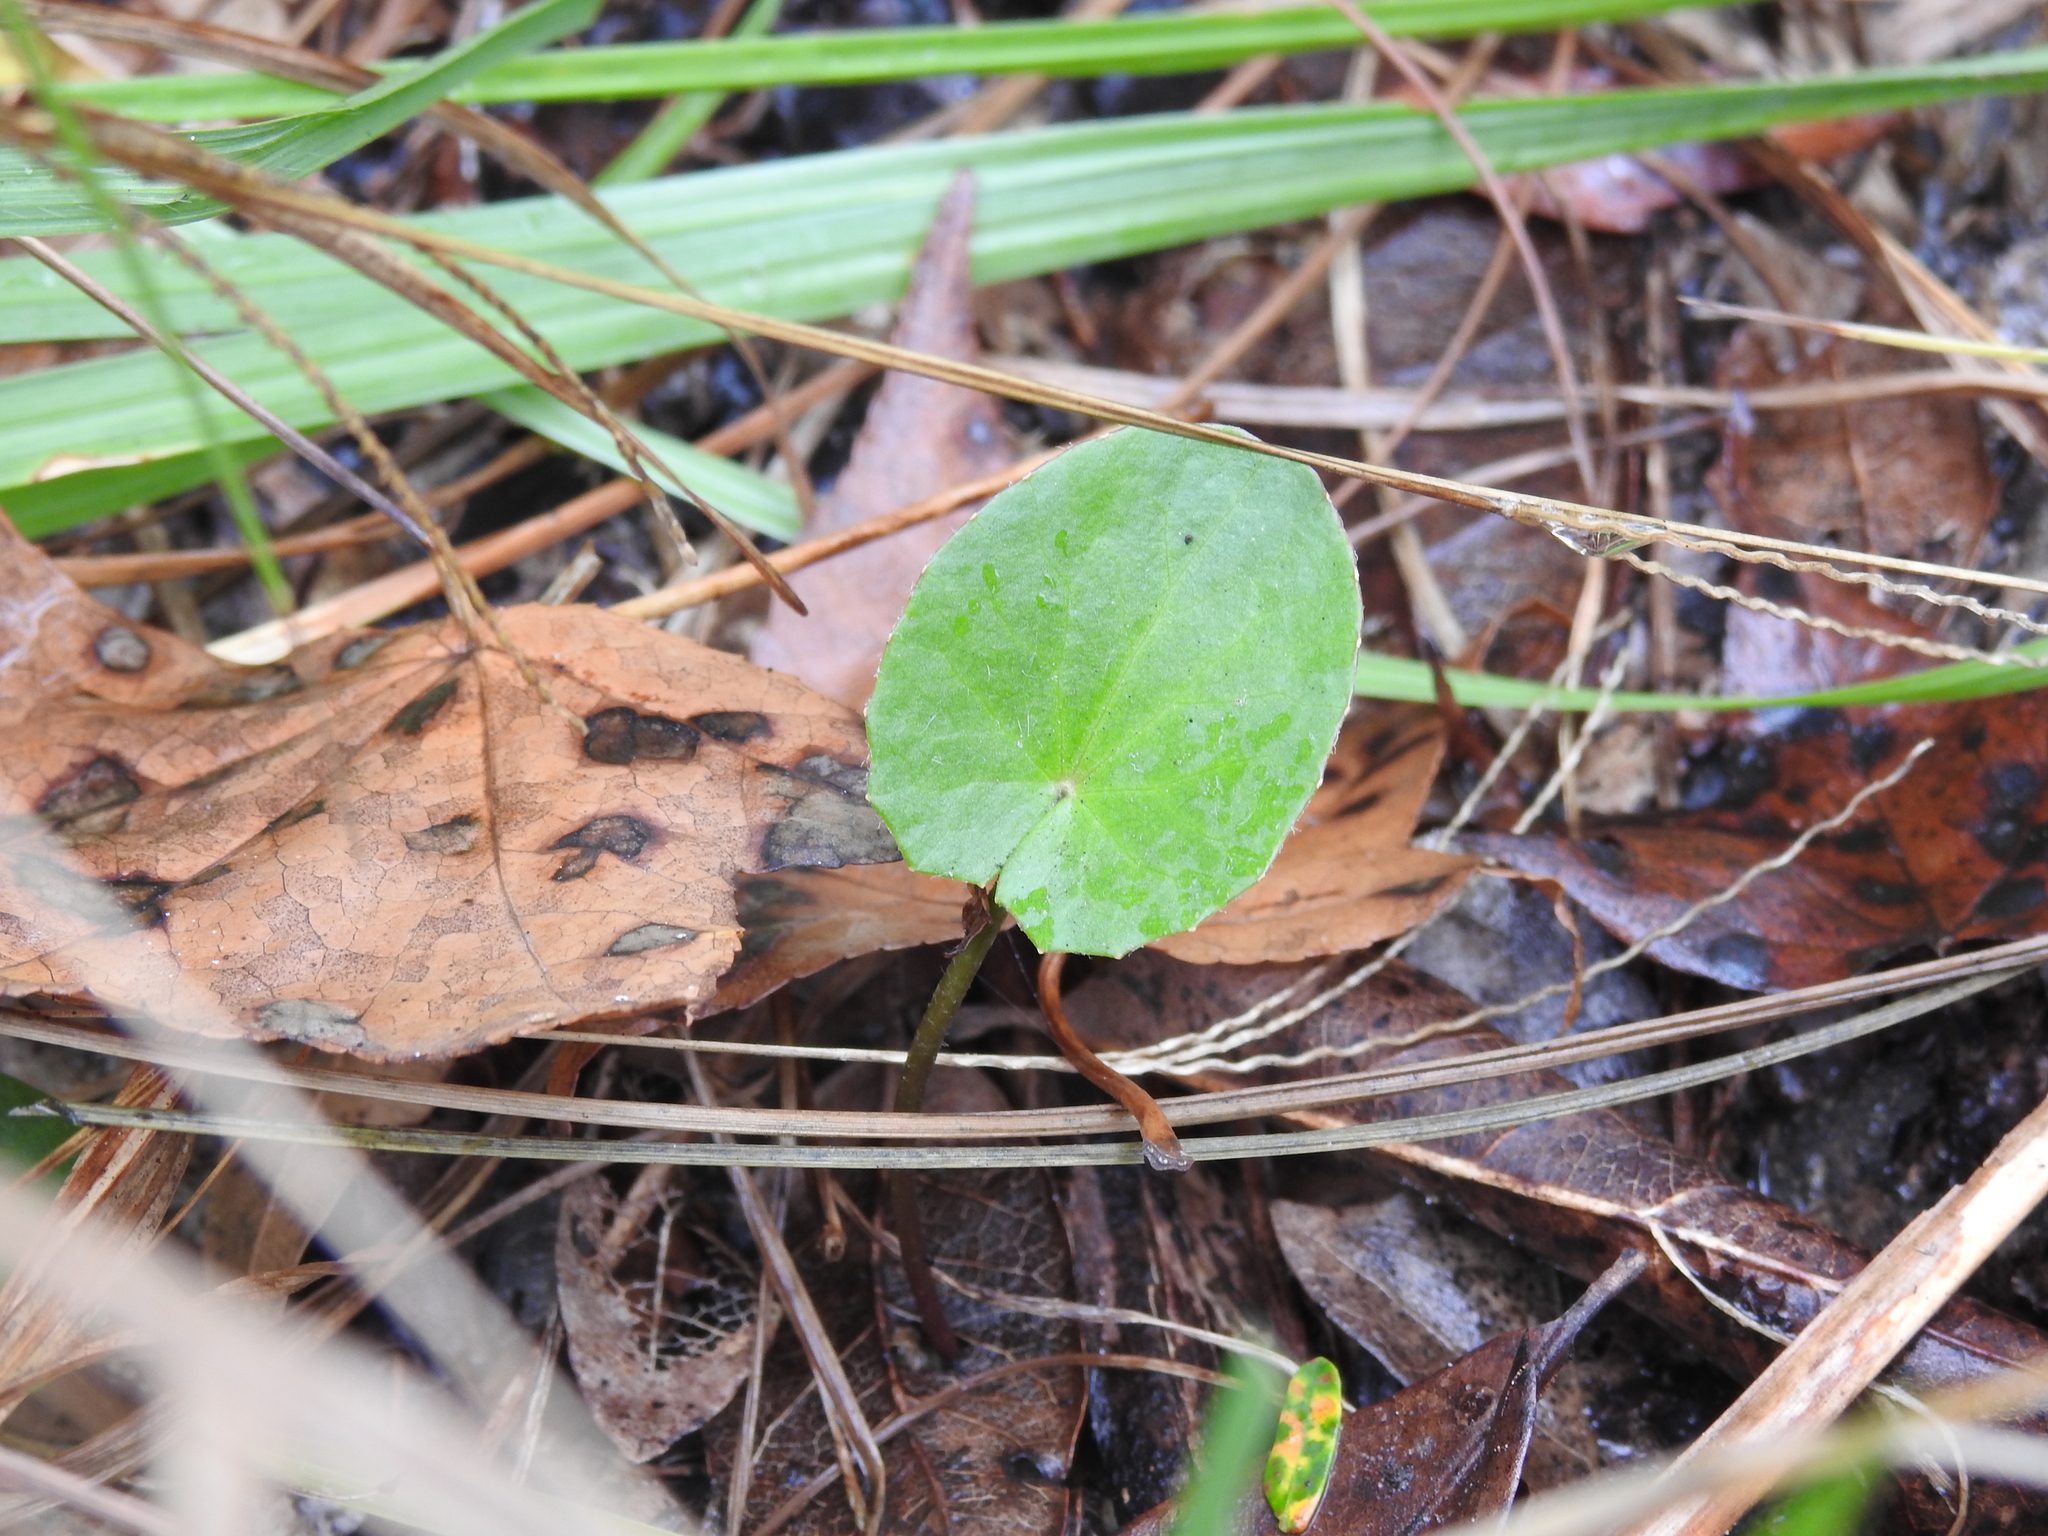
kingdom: Plantae
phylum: Tracheophyta
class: Magnoliopsida
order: Apiales
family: Apiaceae
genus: Centella
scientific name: Centella erecta
